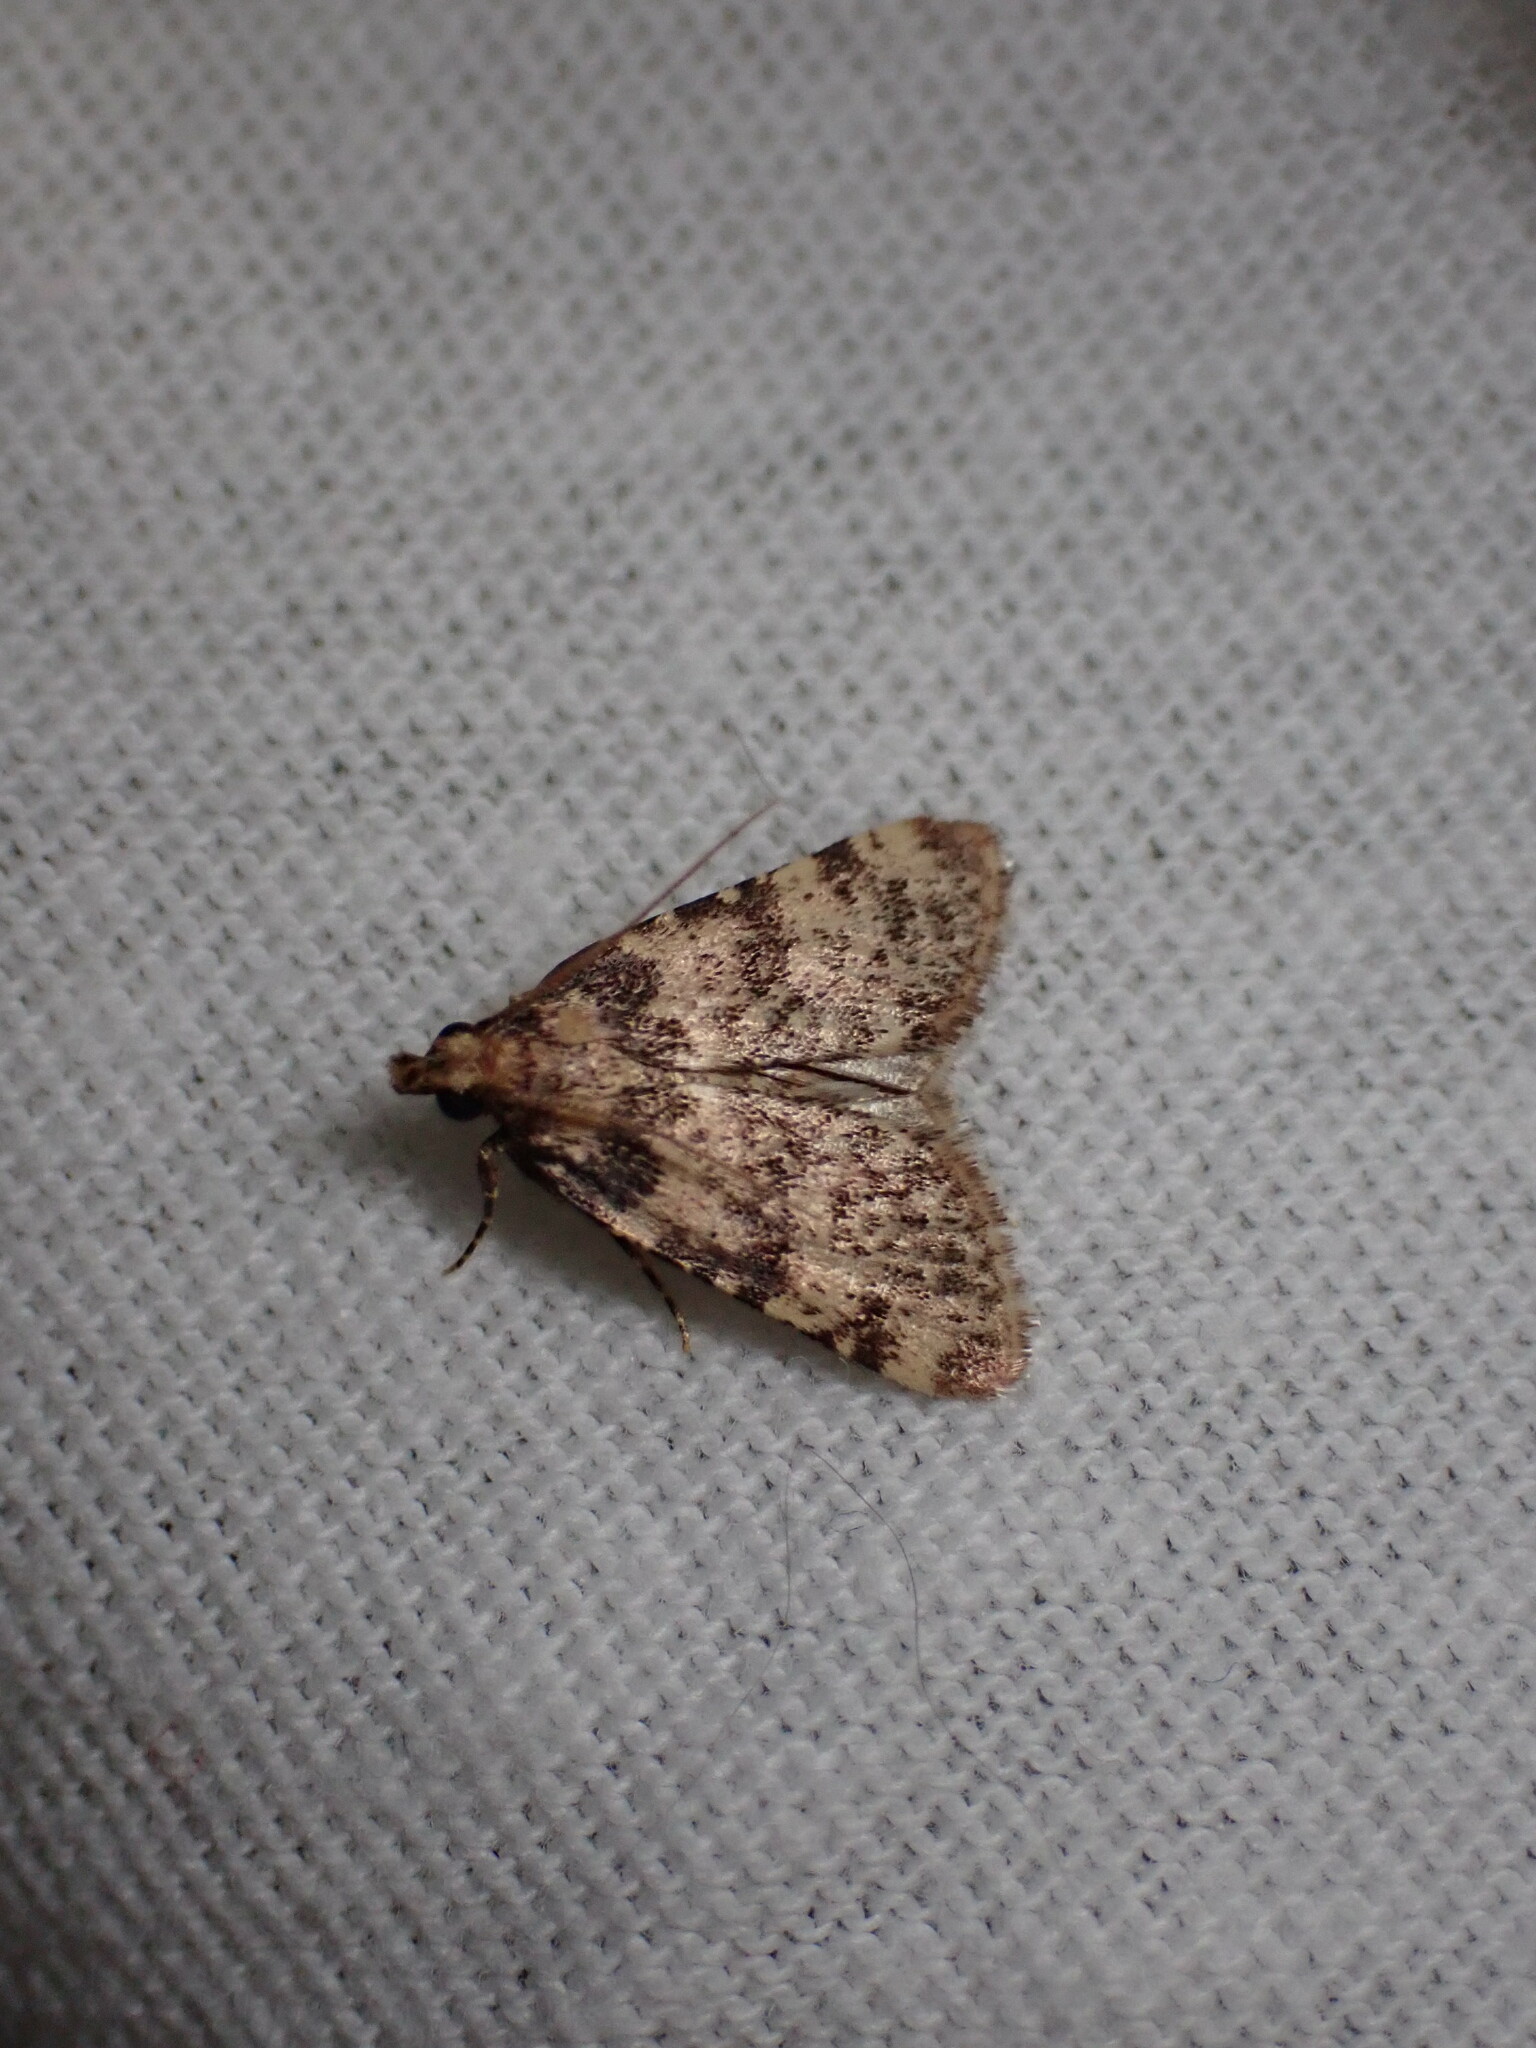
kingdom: Animalia
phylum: Arthropoda
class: Insecta
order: Lepidoptera
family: Pyralidae
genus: Aglossa
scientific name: Aglossa brabanti
